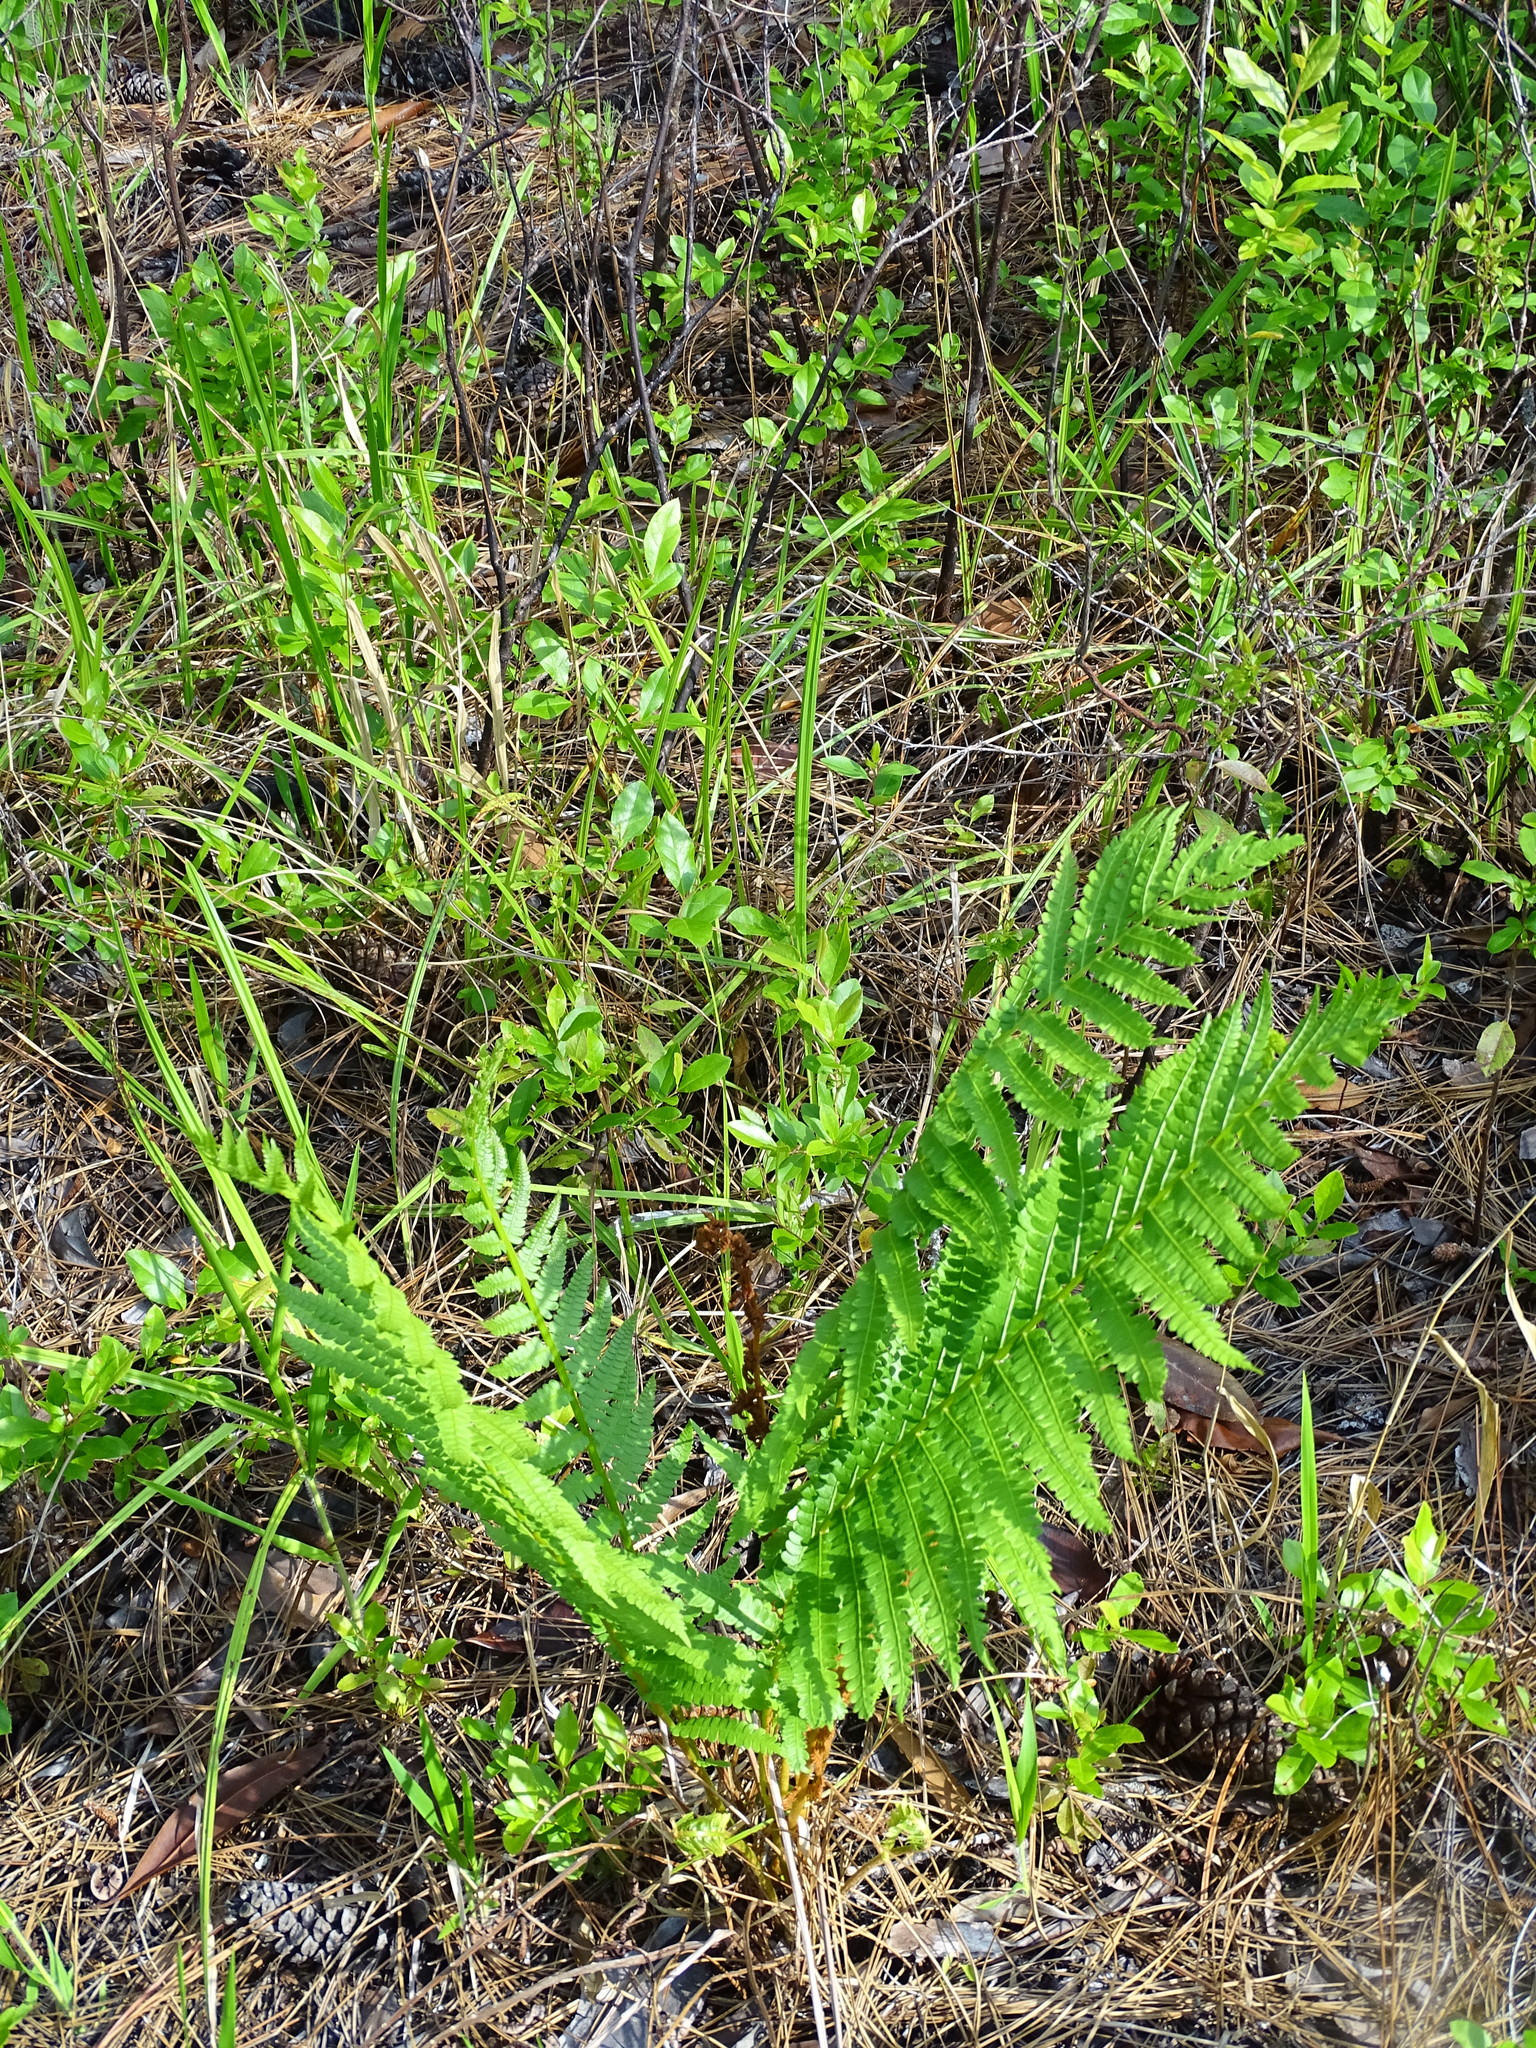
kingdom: Plantae
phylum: Tracheophyta
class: Polypodiopsida
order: Osmundales
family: Osmundaceae
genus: Osmundastrum
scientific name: Osmundastrum cinnamomeum
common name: Cinnamon fern
